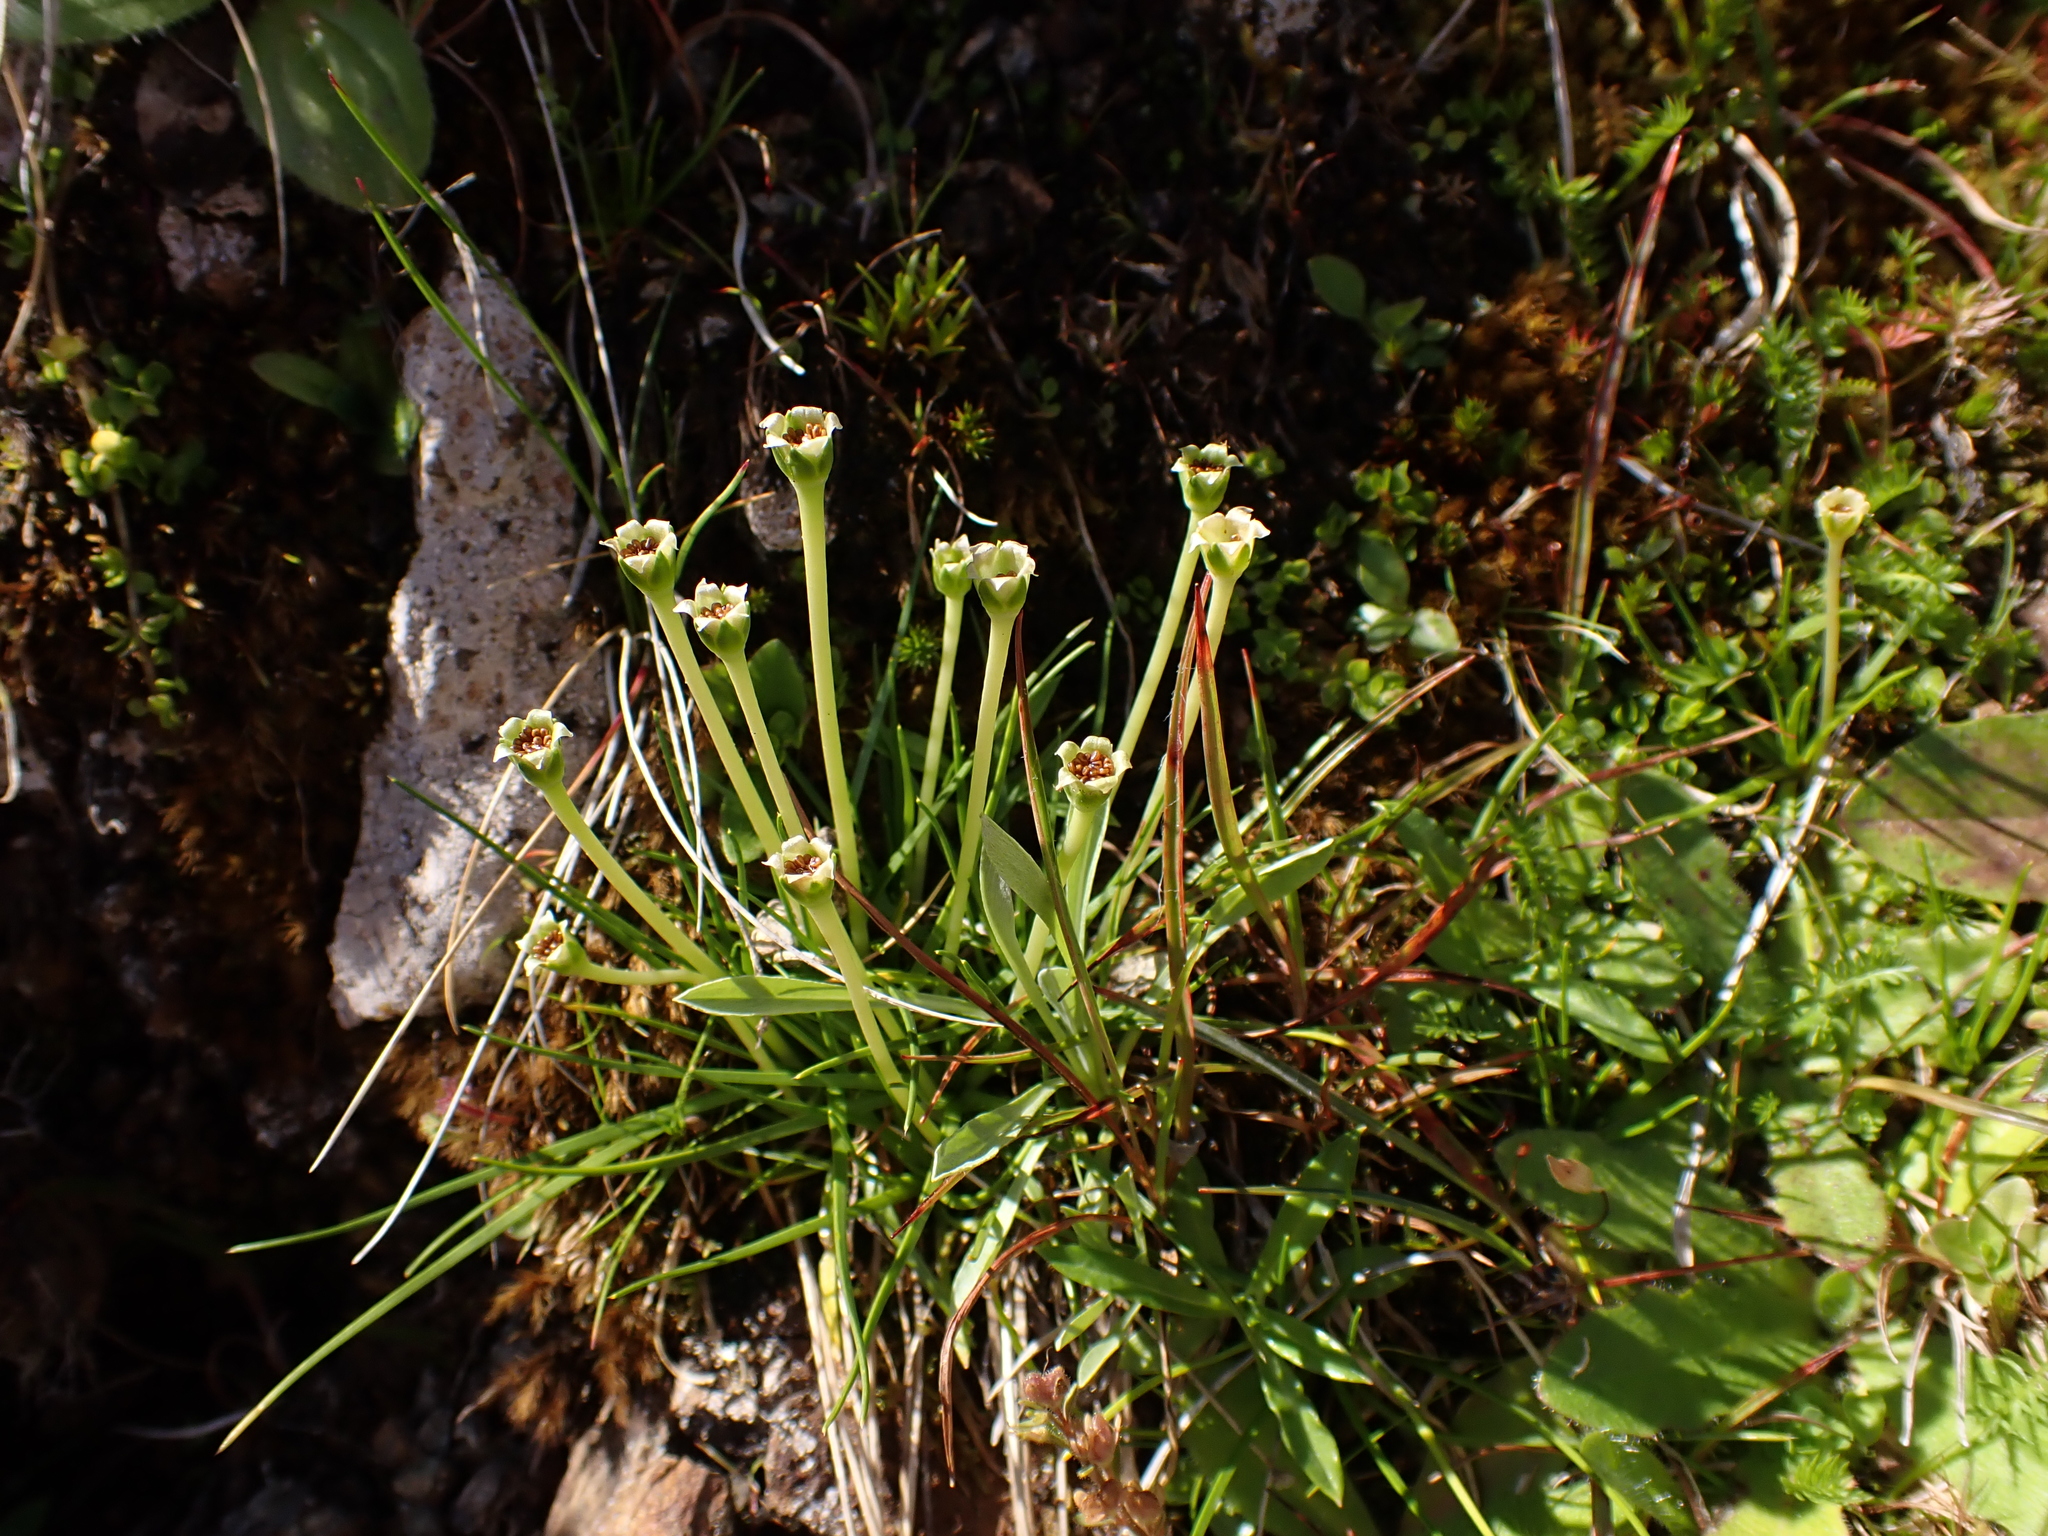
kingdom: Plantae
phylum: Tracheophyta
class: Magnoliopsida
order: Caryophyllales
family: Caryophyllaceae
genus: Colobanthus
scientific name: Colobanthus affinis
